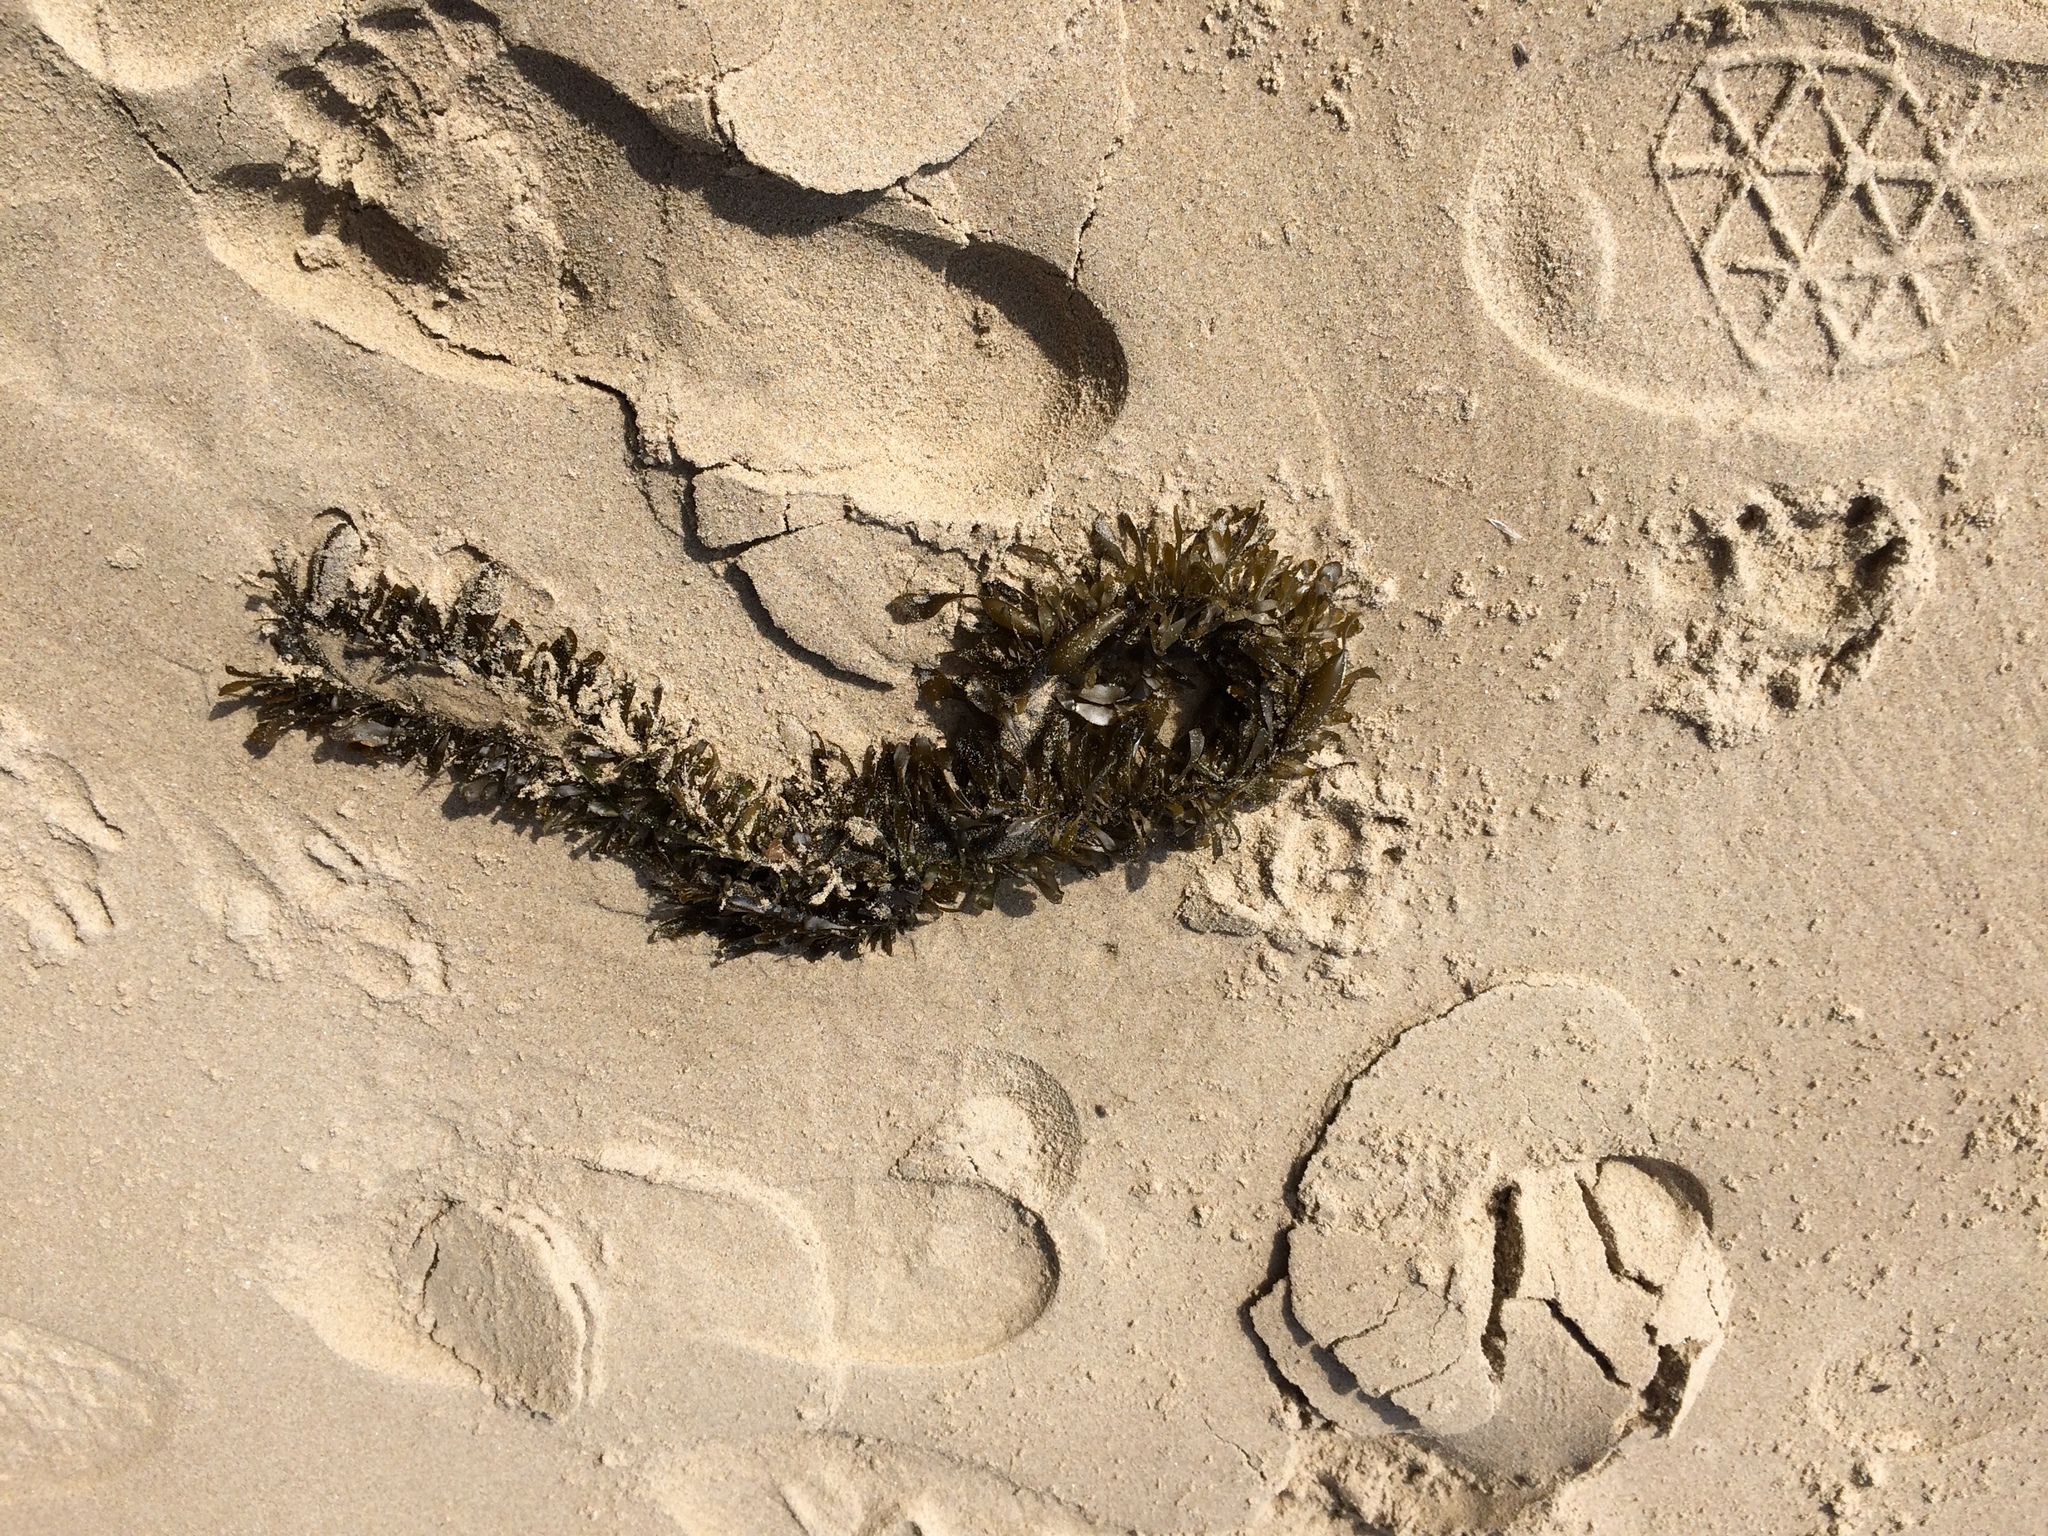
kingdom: Chromista
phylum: Ochrophyta
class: Phaeophyceae
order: Laminariales
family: Lessoniaceae
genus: Egregia
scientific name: Egregia menziesii
